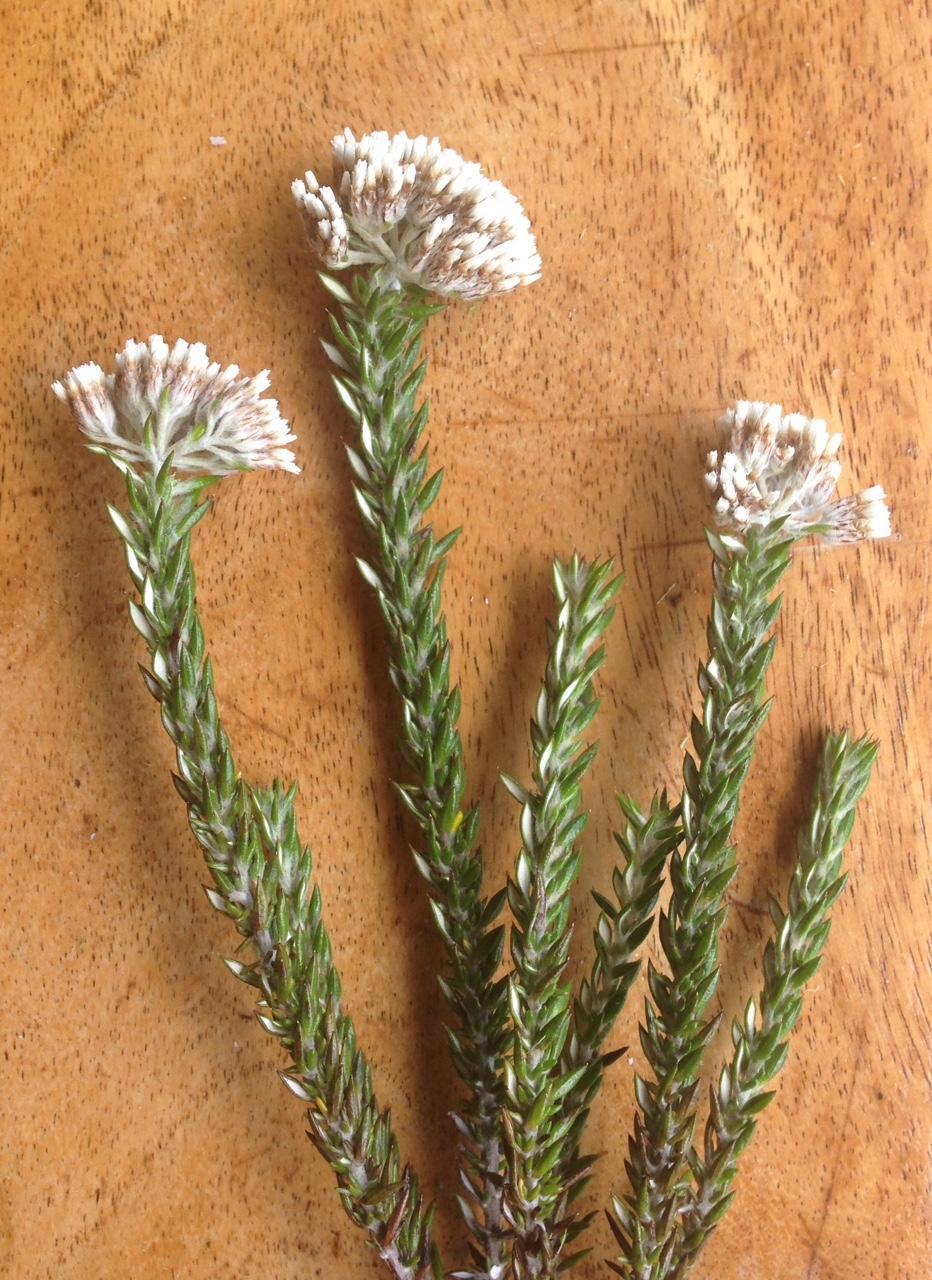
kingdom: Plantae
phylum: Tracheophyta
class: Magnoliopsida
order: Asterales
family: Asteraceae
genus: Metalasia
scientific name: Metalasia trivialis
